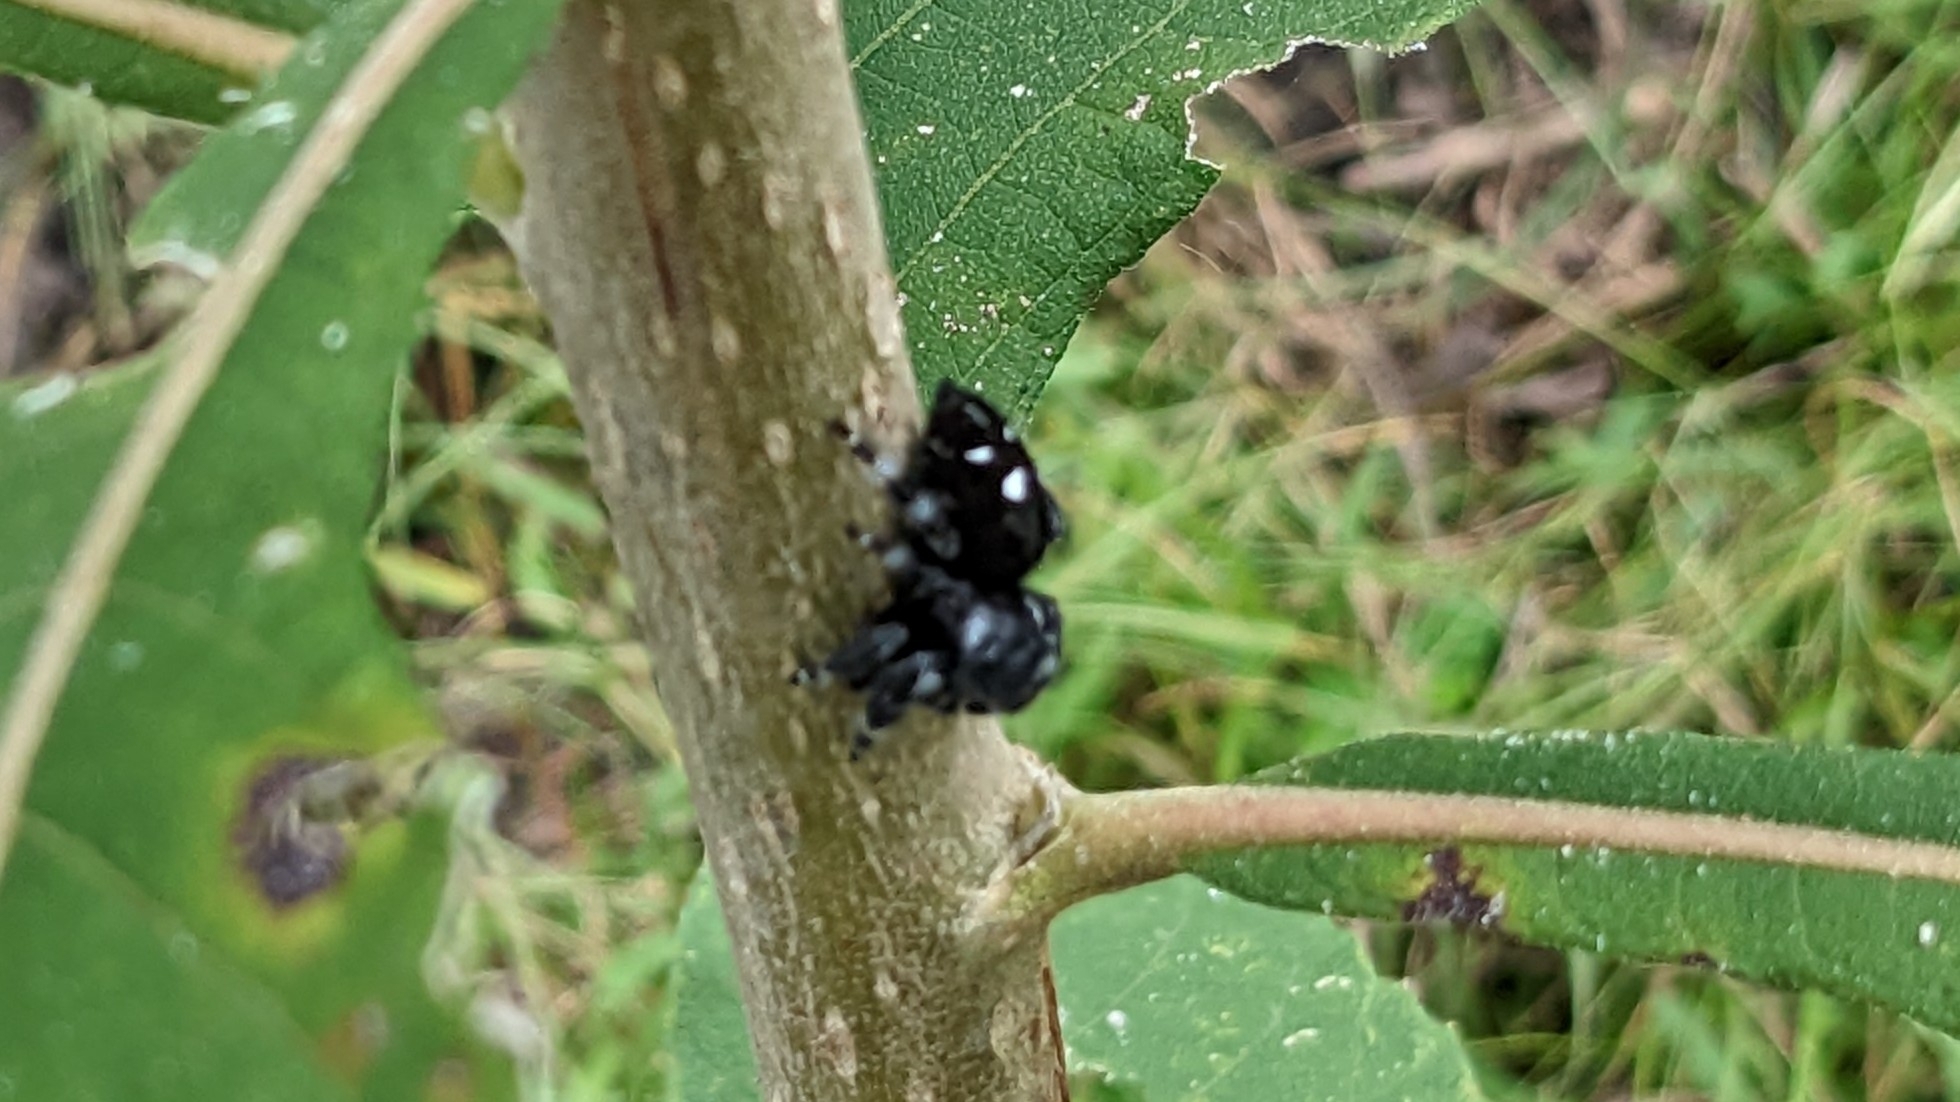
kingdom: Animalia
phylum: Arthropoda
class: Arachnida
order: Araneae
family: Salticidae
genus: Phidippus
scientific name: Phidippus audax
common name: Bold jumper
